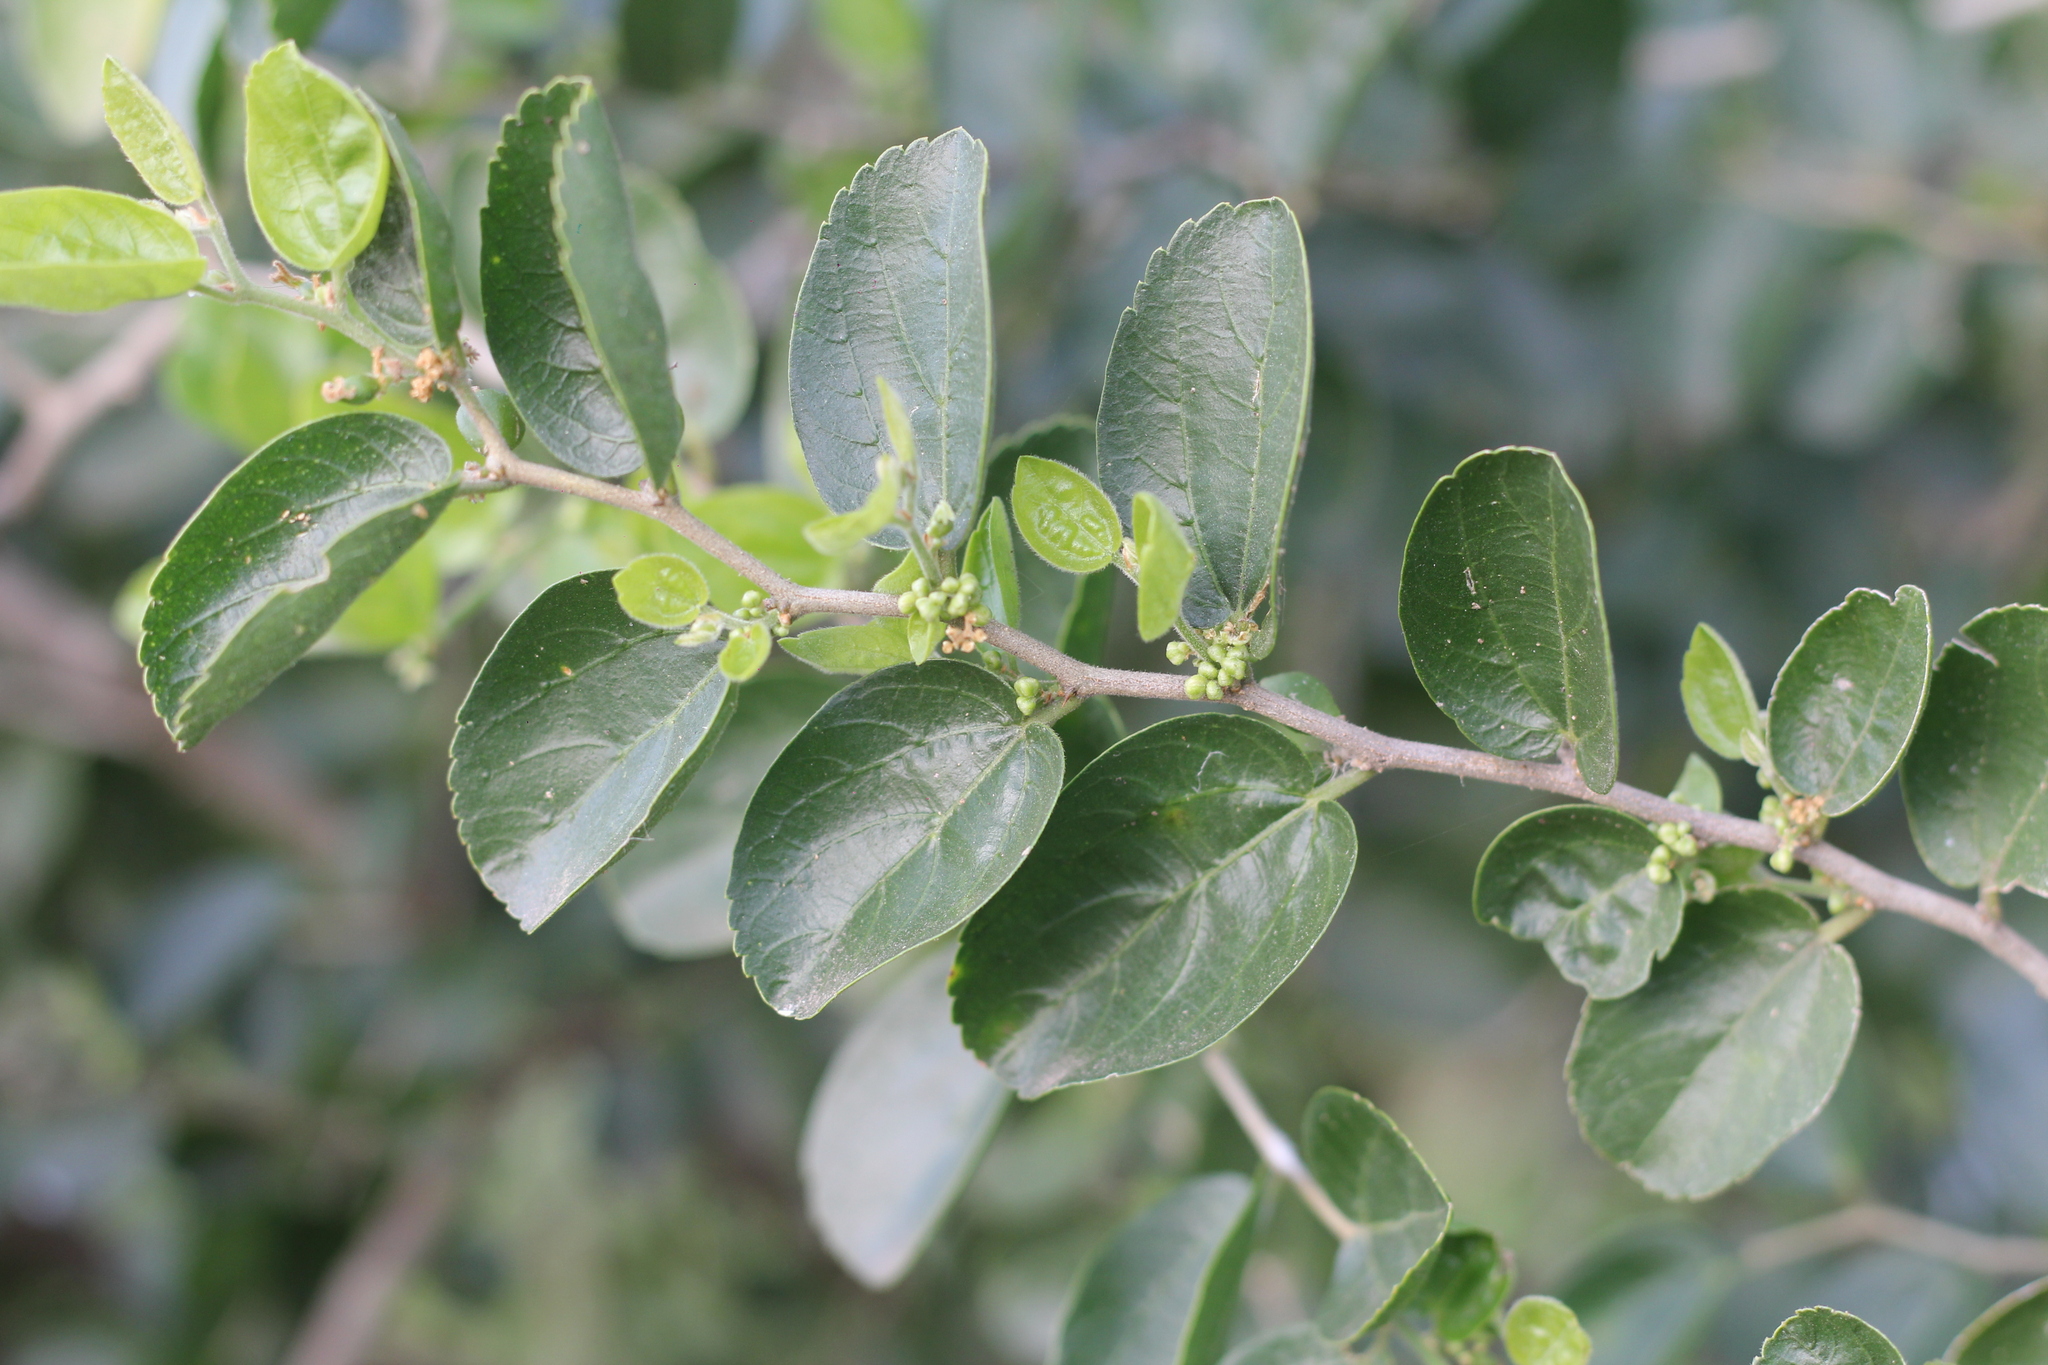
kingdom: Plantae
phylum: Tracheophyta
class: Magnoliopsida
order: Rosales
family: Cannabaceae
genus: Celtis
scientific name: Celtis chicape
